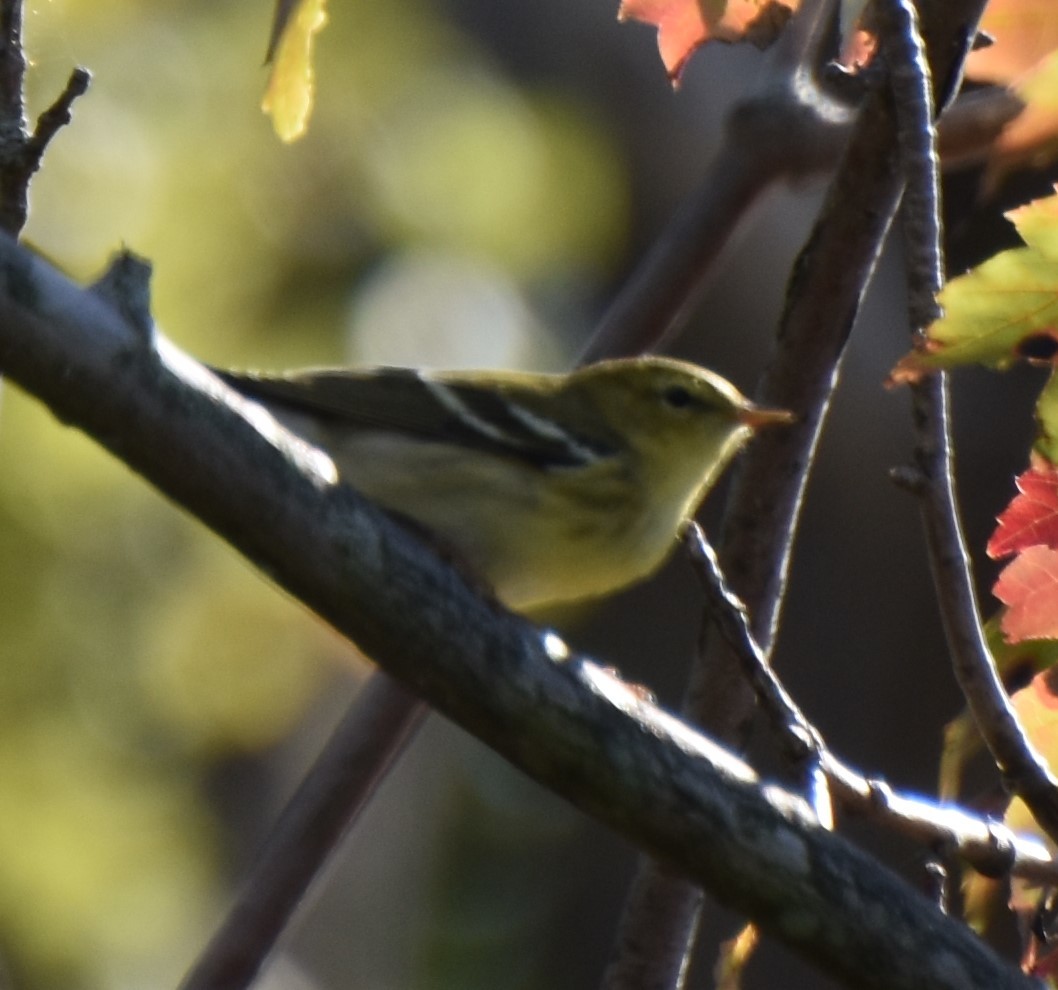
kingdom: Animalia
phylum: Chordata
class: Aves
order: Passeriformes
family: Parulidae
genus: Setophaga
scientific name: Setophaga striata
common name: Blackpoll warbler
